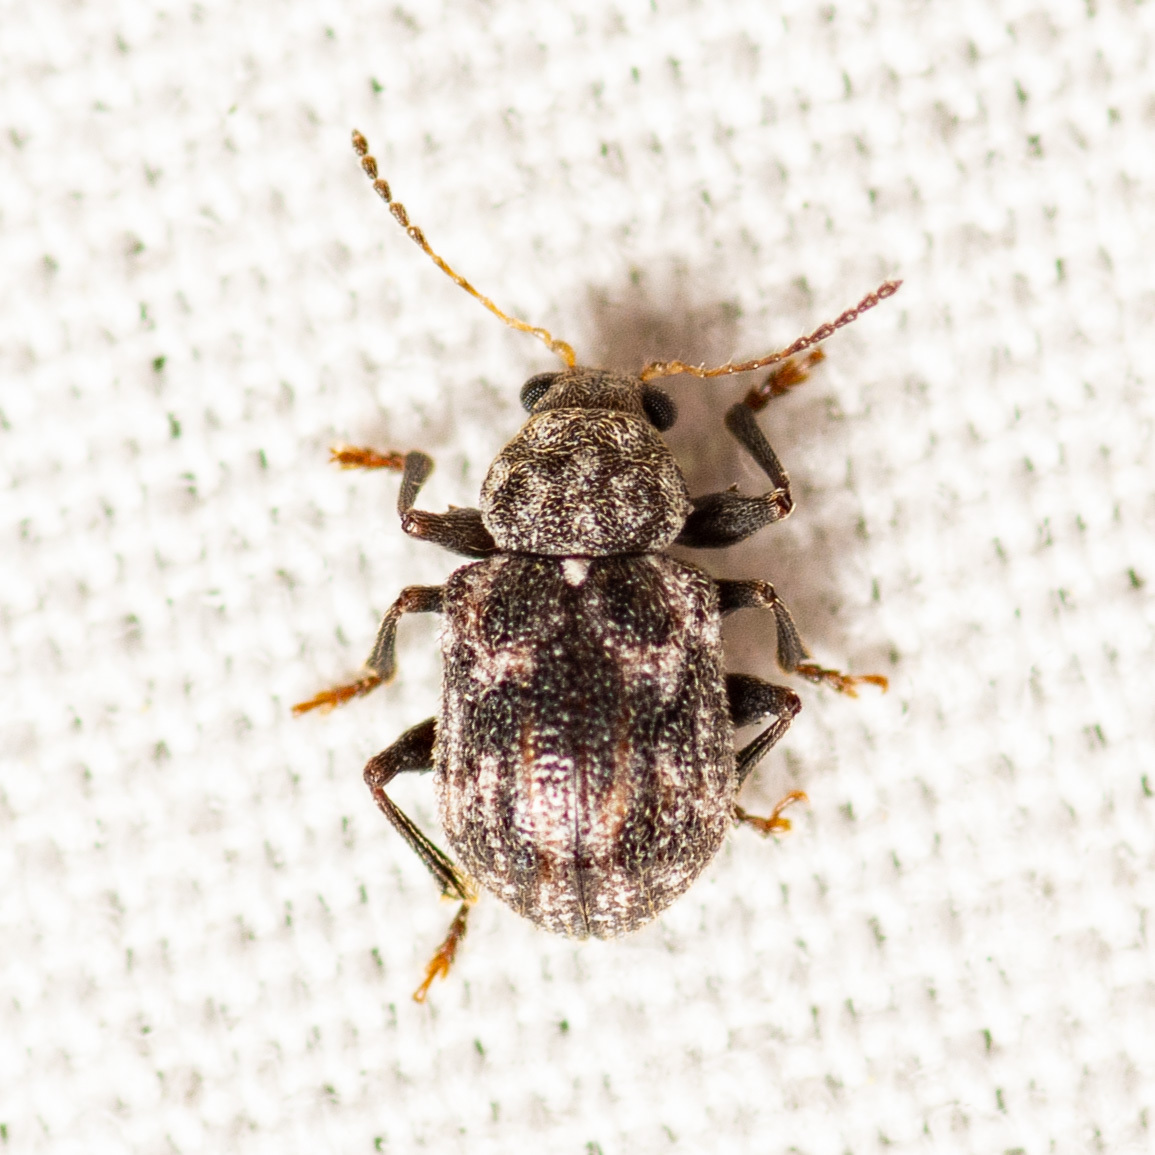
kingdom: Animalia
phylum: Arthropoda
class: Insecta
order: Coleoptera
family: Chrysomelidae
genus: Xanthonia
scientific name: Xanthonia picturata
